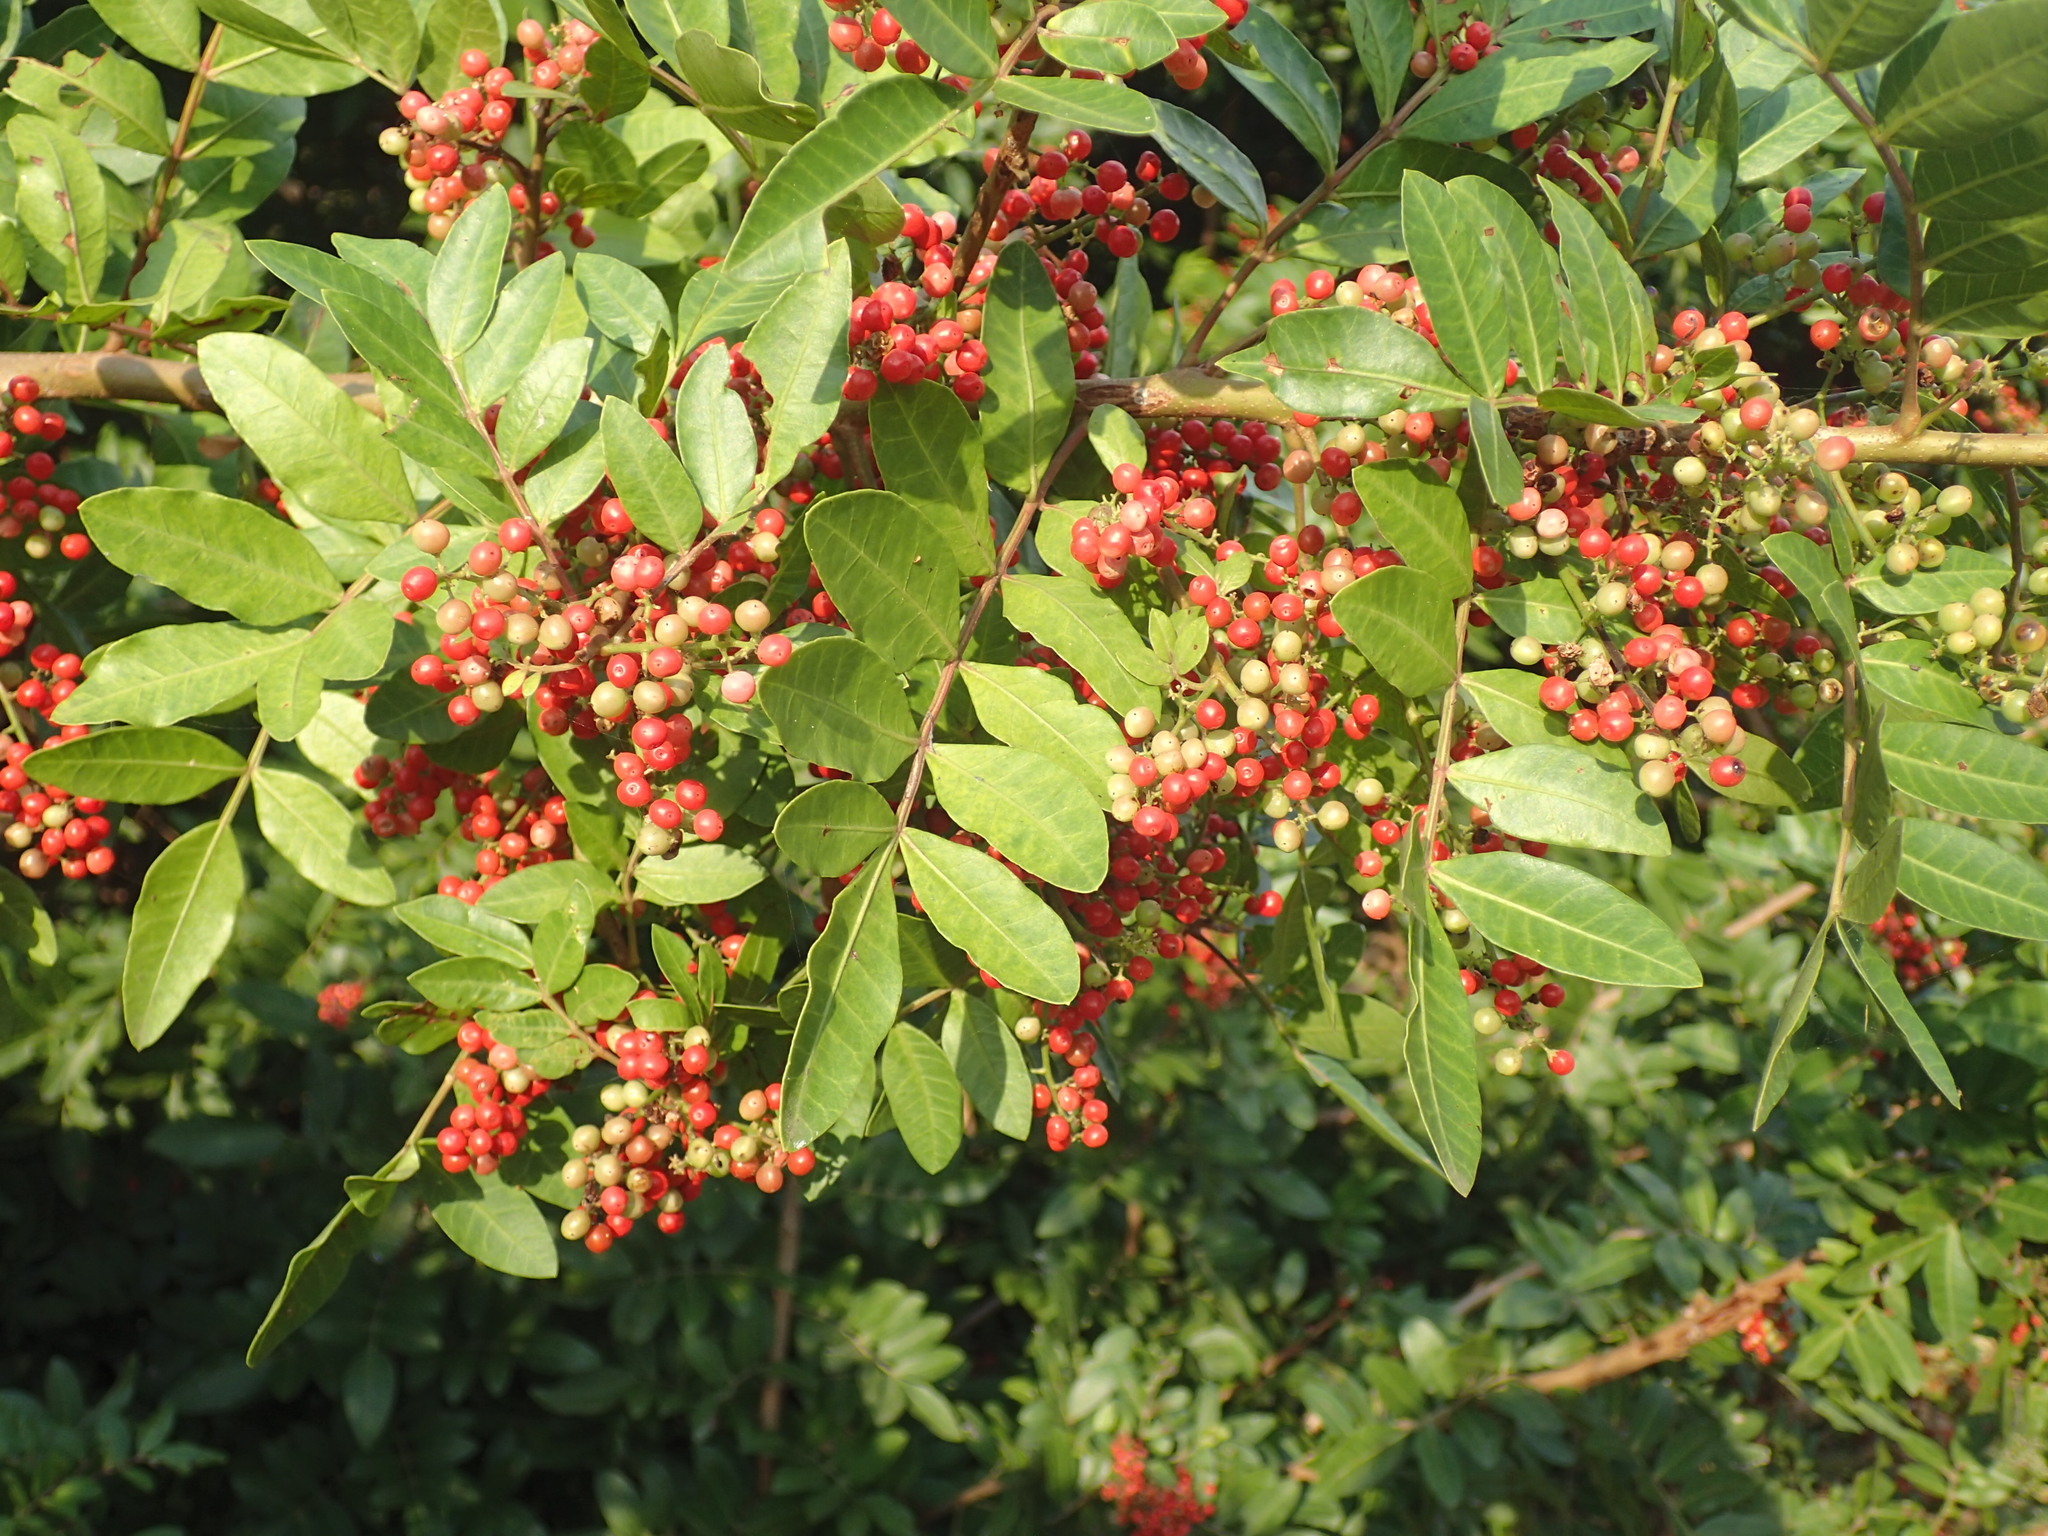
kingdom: Plantae
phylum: Tracheophyta
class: Magnoliopsida
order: Sapindales
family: Anacardiaceae
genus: Schinus
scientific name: Schinus terebinthifolia
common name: Brazilian peppertree
